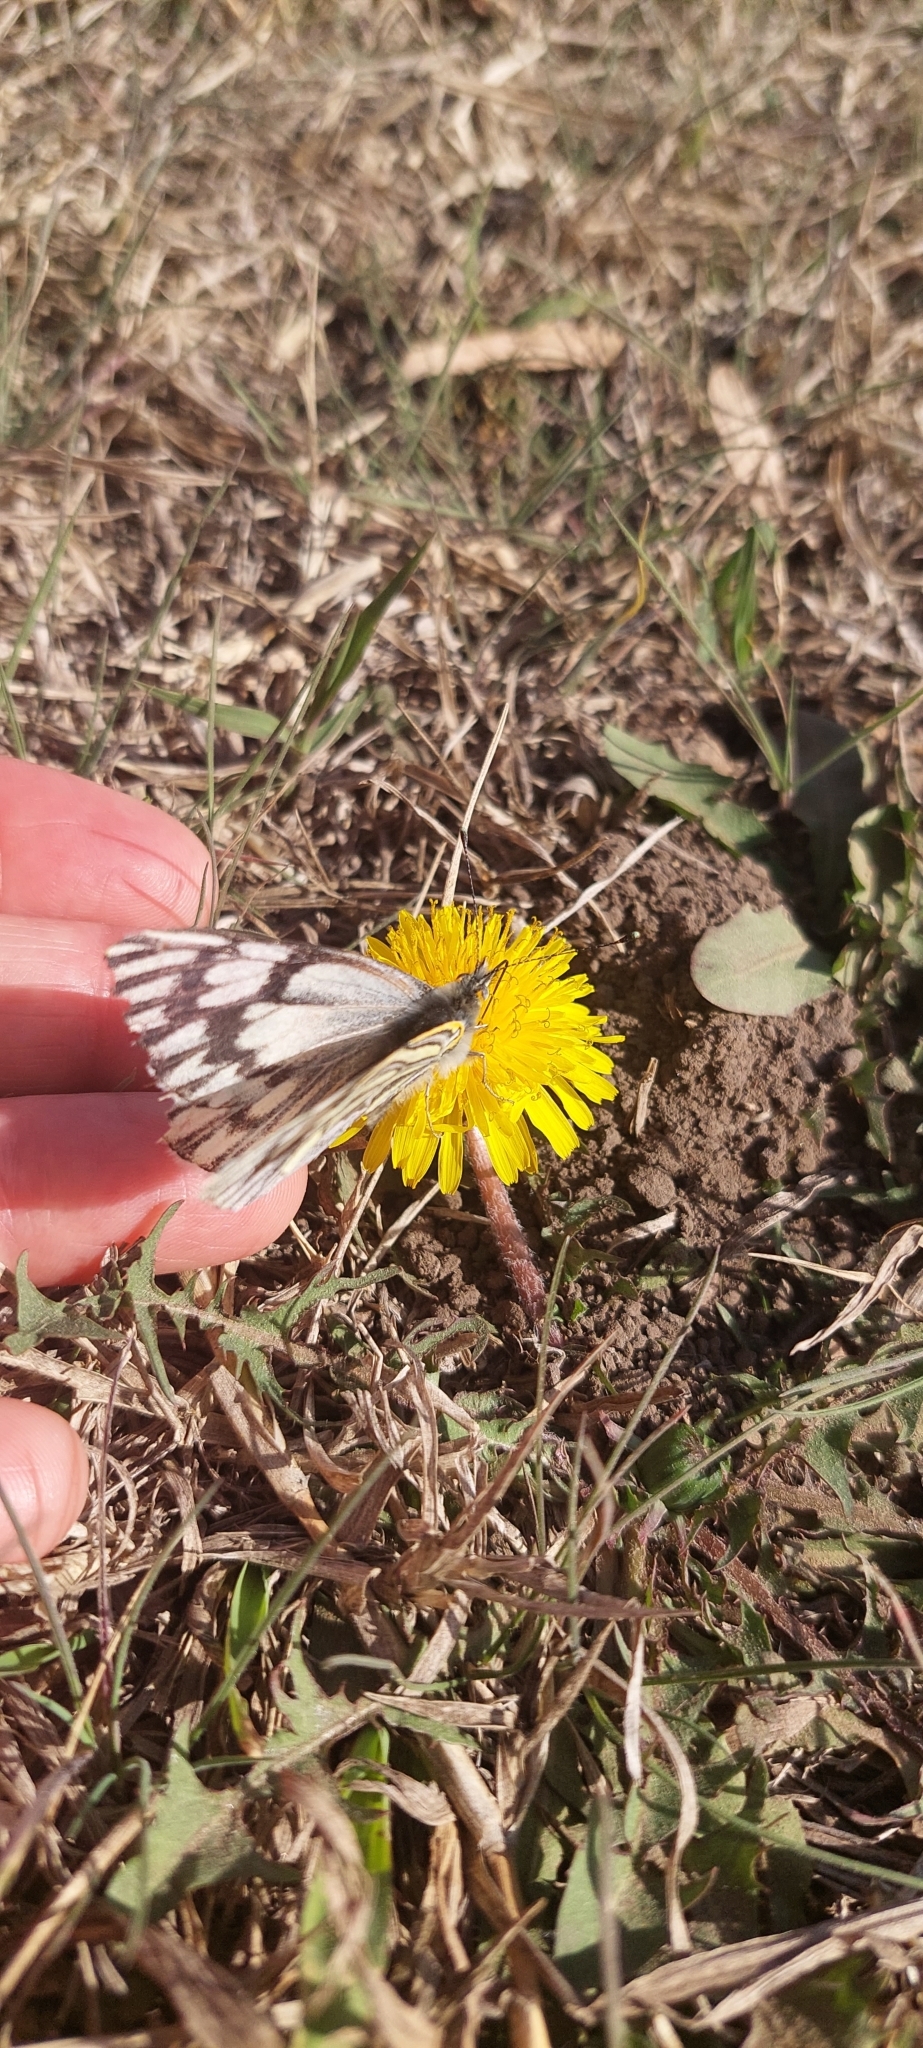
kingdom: Animalia
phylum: Arthropoda
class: Insecta
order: Lepidoptera
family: Pieridae
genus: Tatochila
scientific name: Tatochila mercedis
